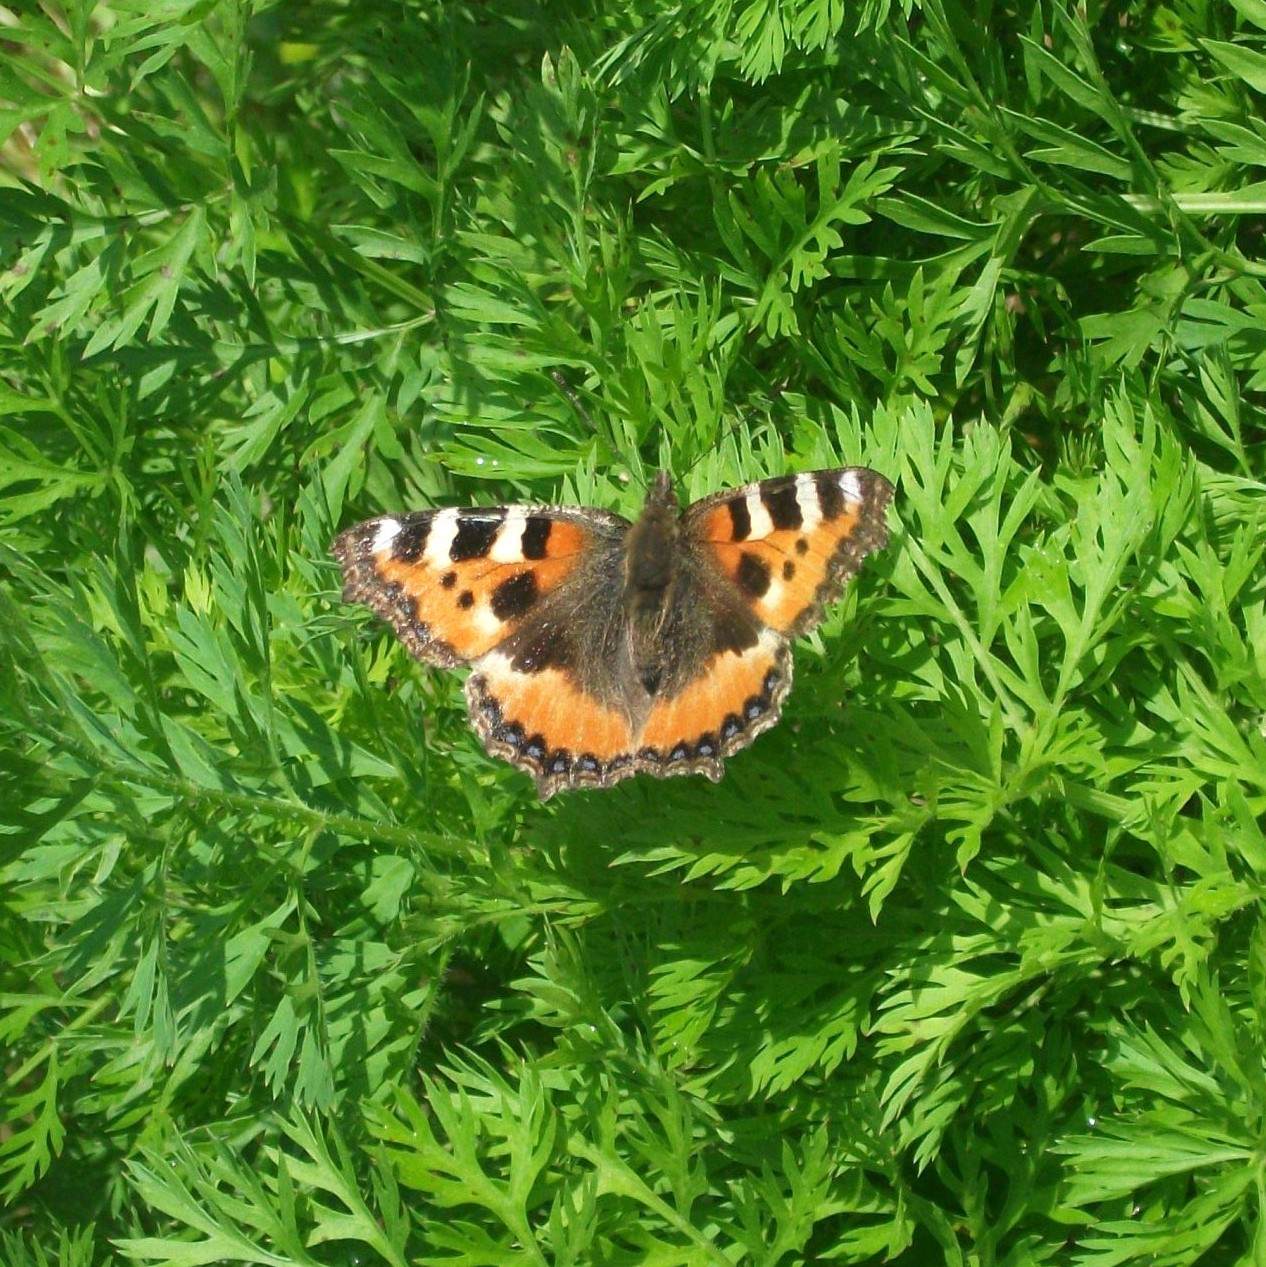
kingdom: Animalia
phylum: Arthropoda
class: Insecta
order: Lepidoptera
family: Nymphalidae
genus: Aglais
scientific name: Aglais urticae
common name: Small tortoiseshell
